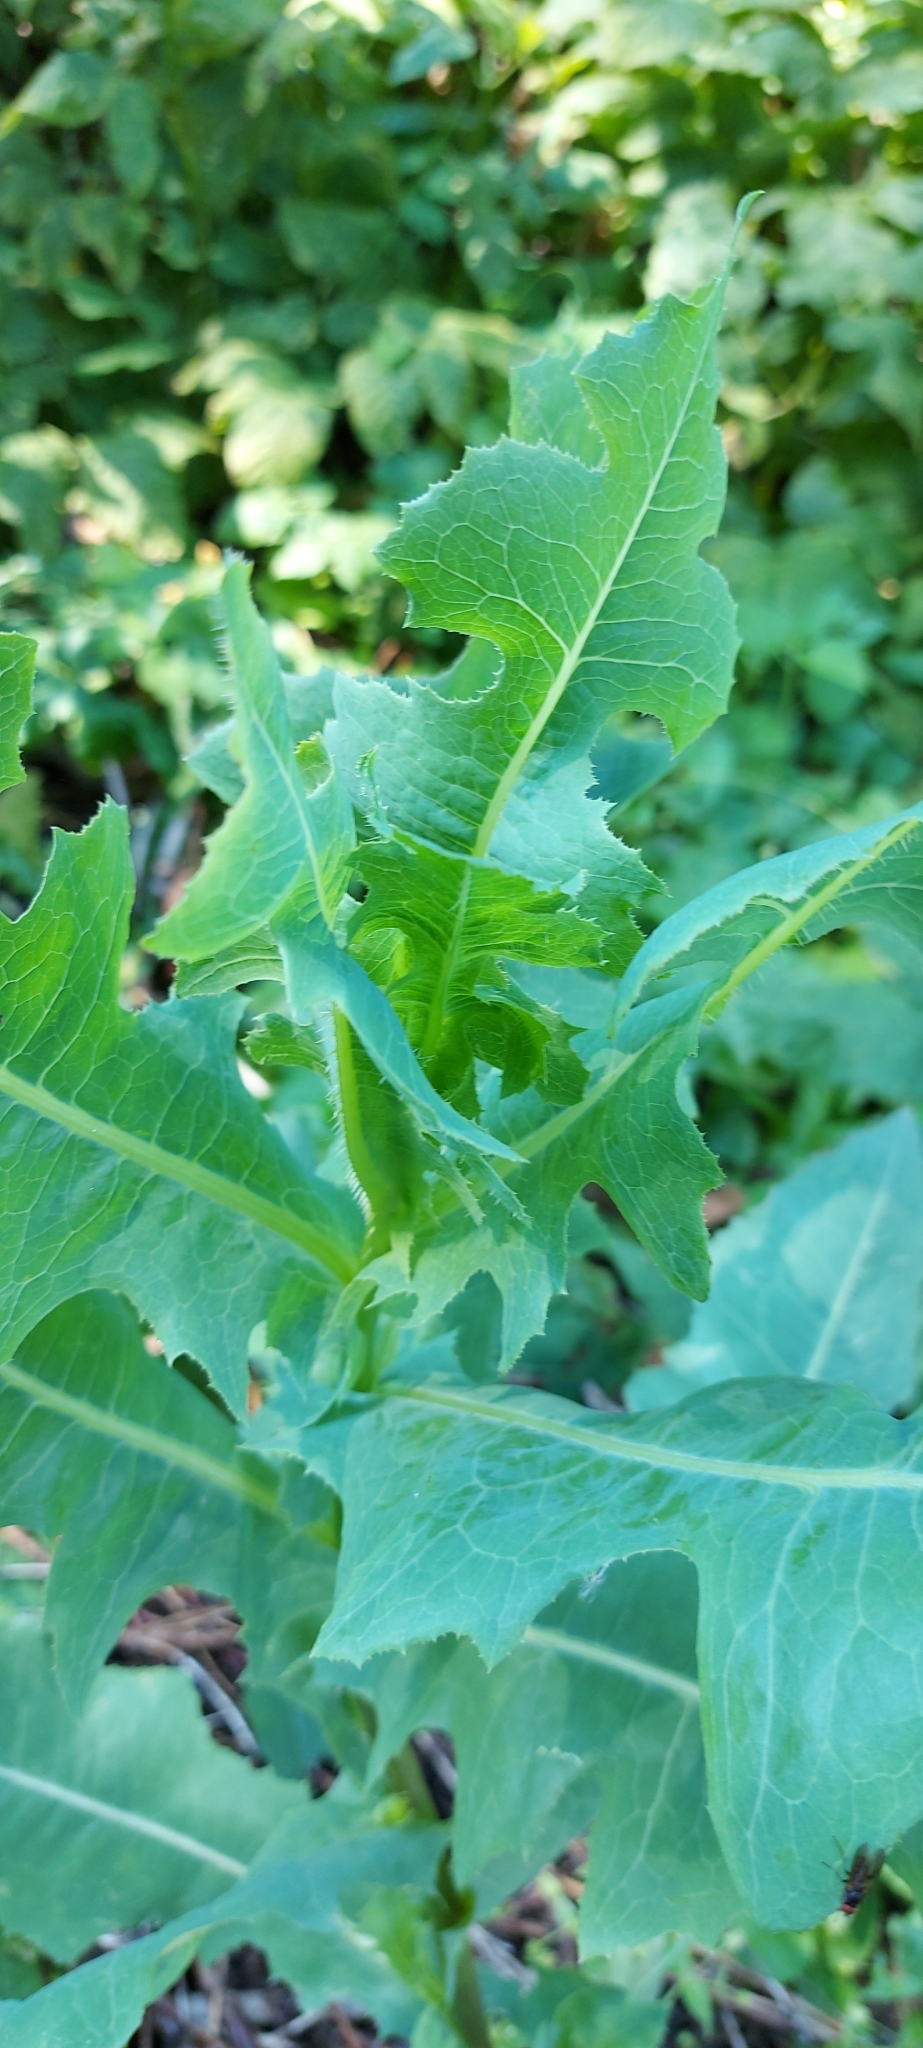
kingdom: Plantae
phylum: Tracheophyta
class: Magnoliopsida
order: Asterales
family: Asteraceae
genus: Lactuca
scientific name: Lactuca serriola
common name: Prickly lettuce
